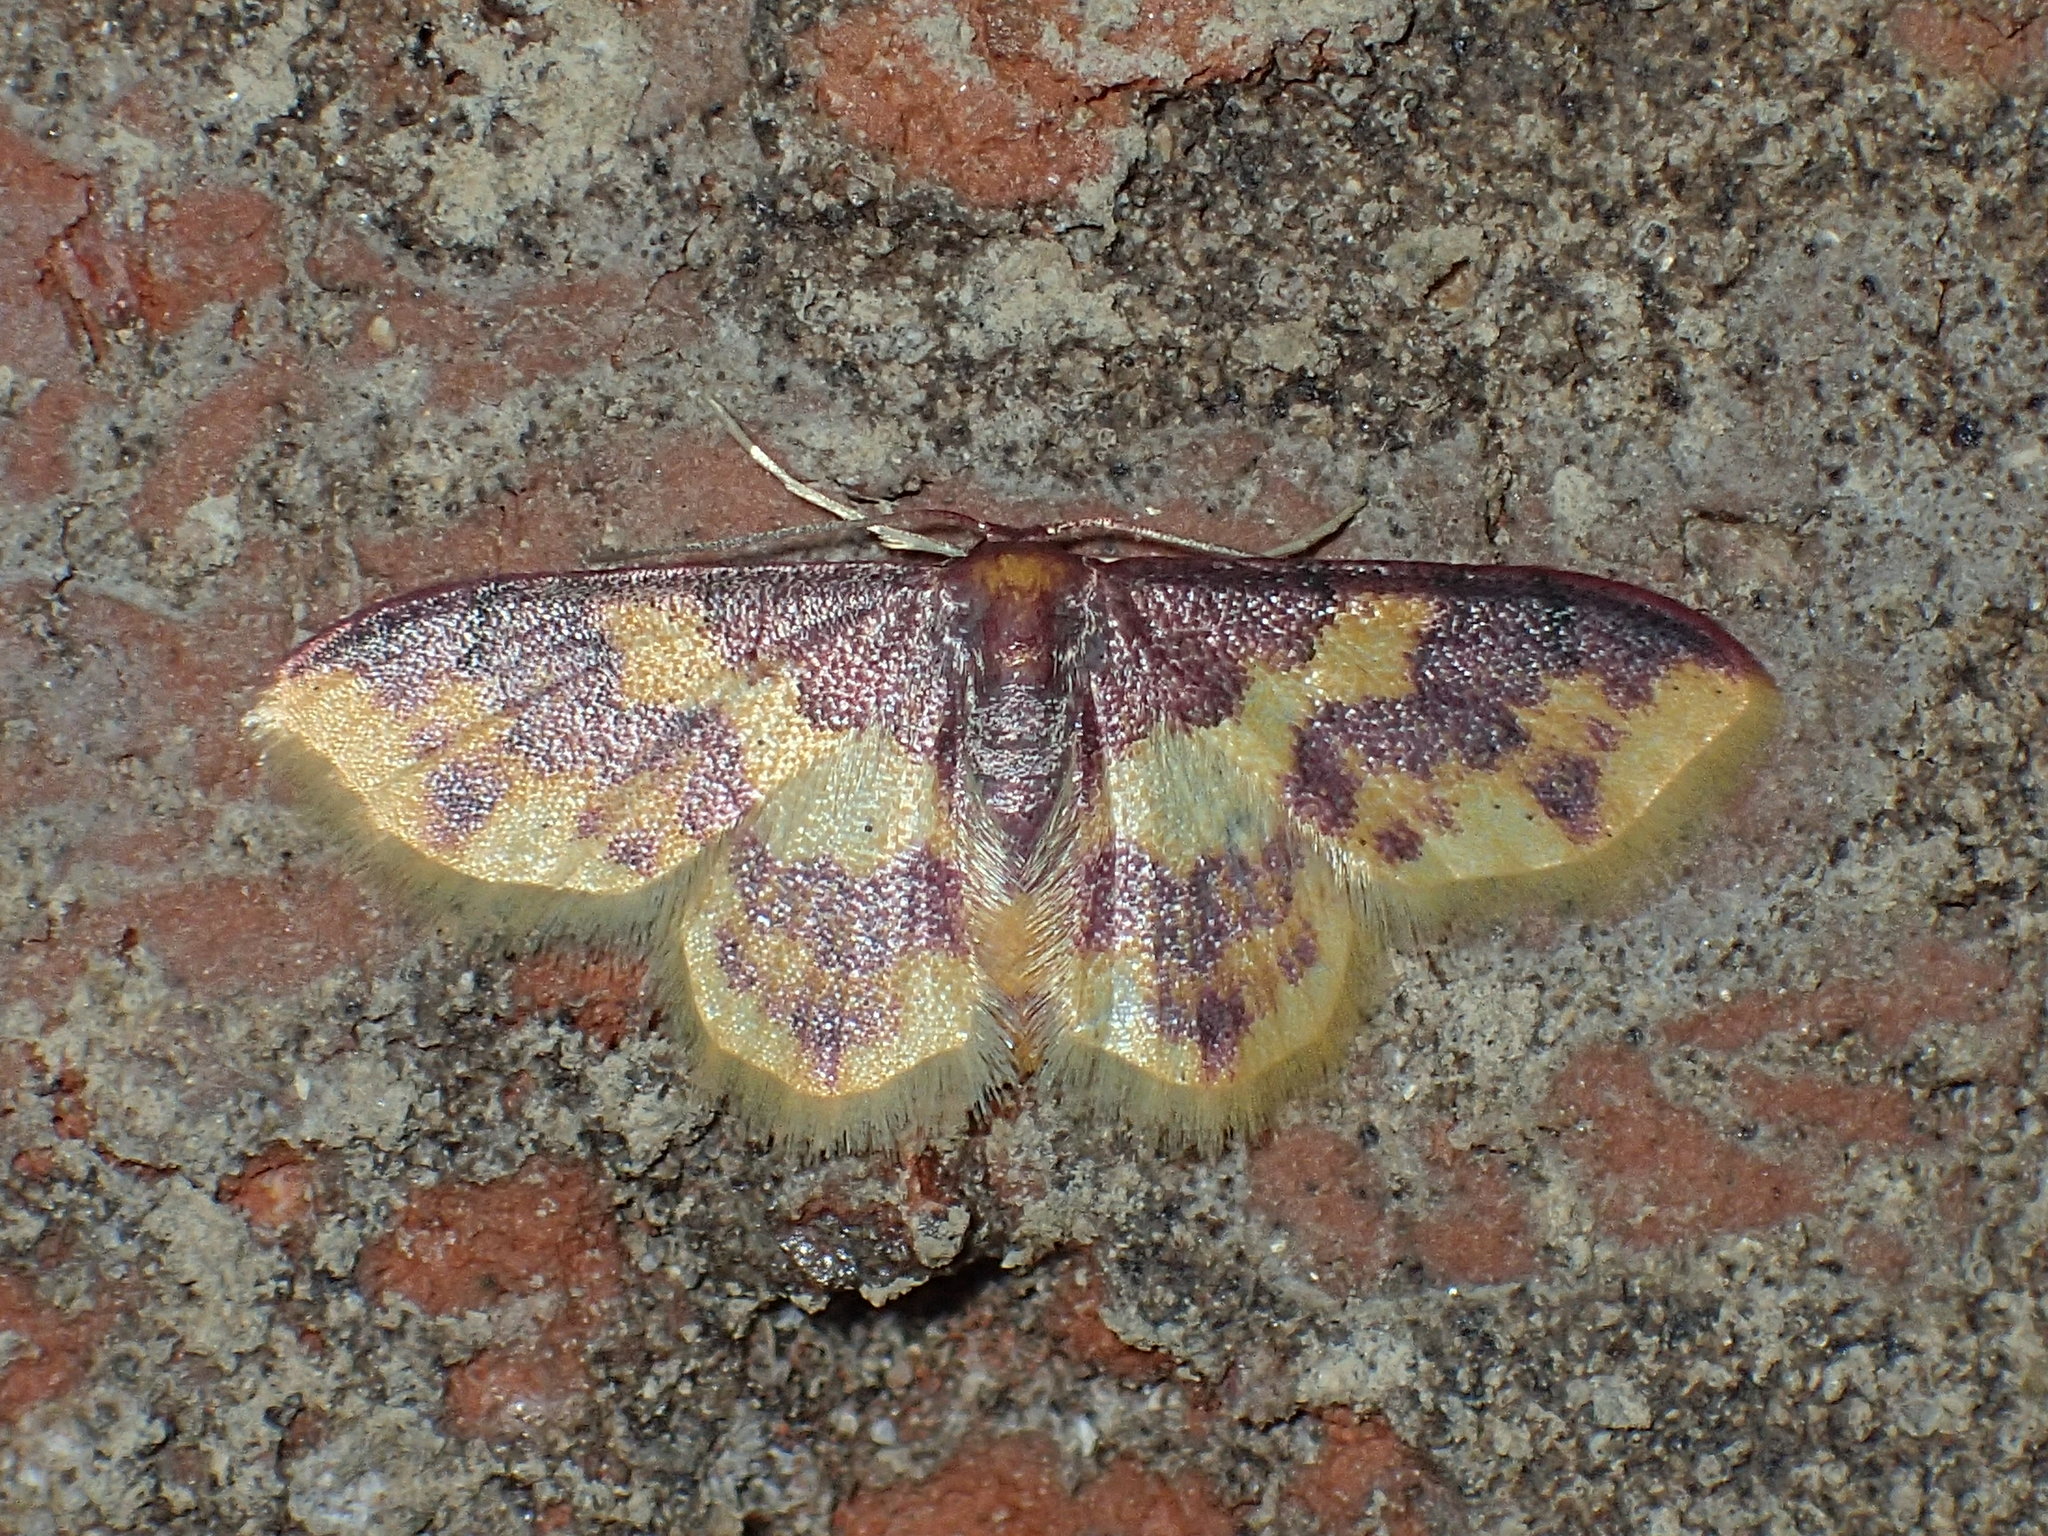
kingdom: Animalia
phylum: Arthropoda
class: Insecta
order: Lepidoptera
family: Geometridae
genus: Lophosis
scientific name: Lophosis labeculata
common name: Stained lophosis moth
